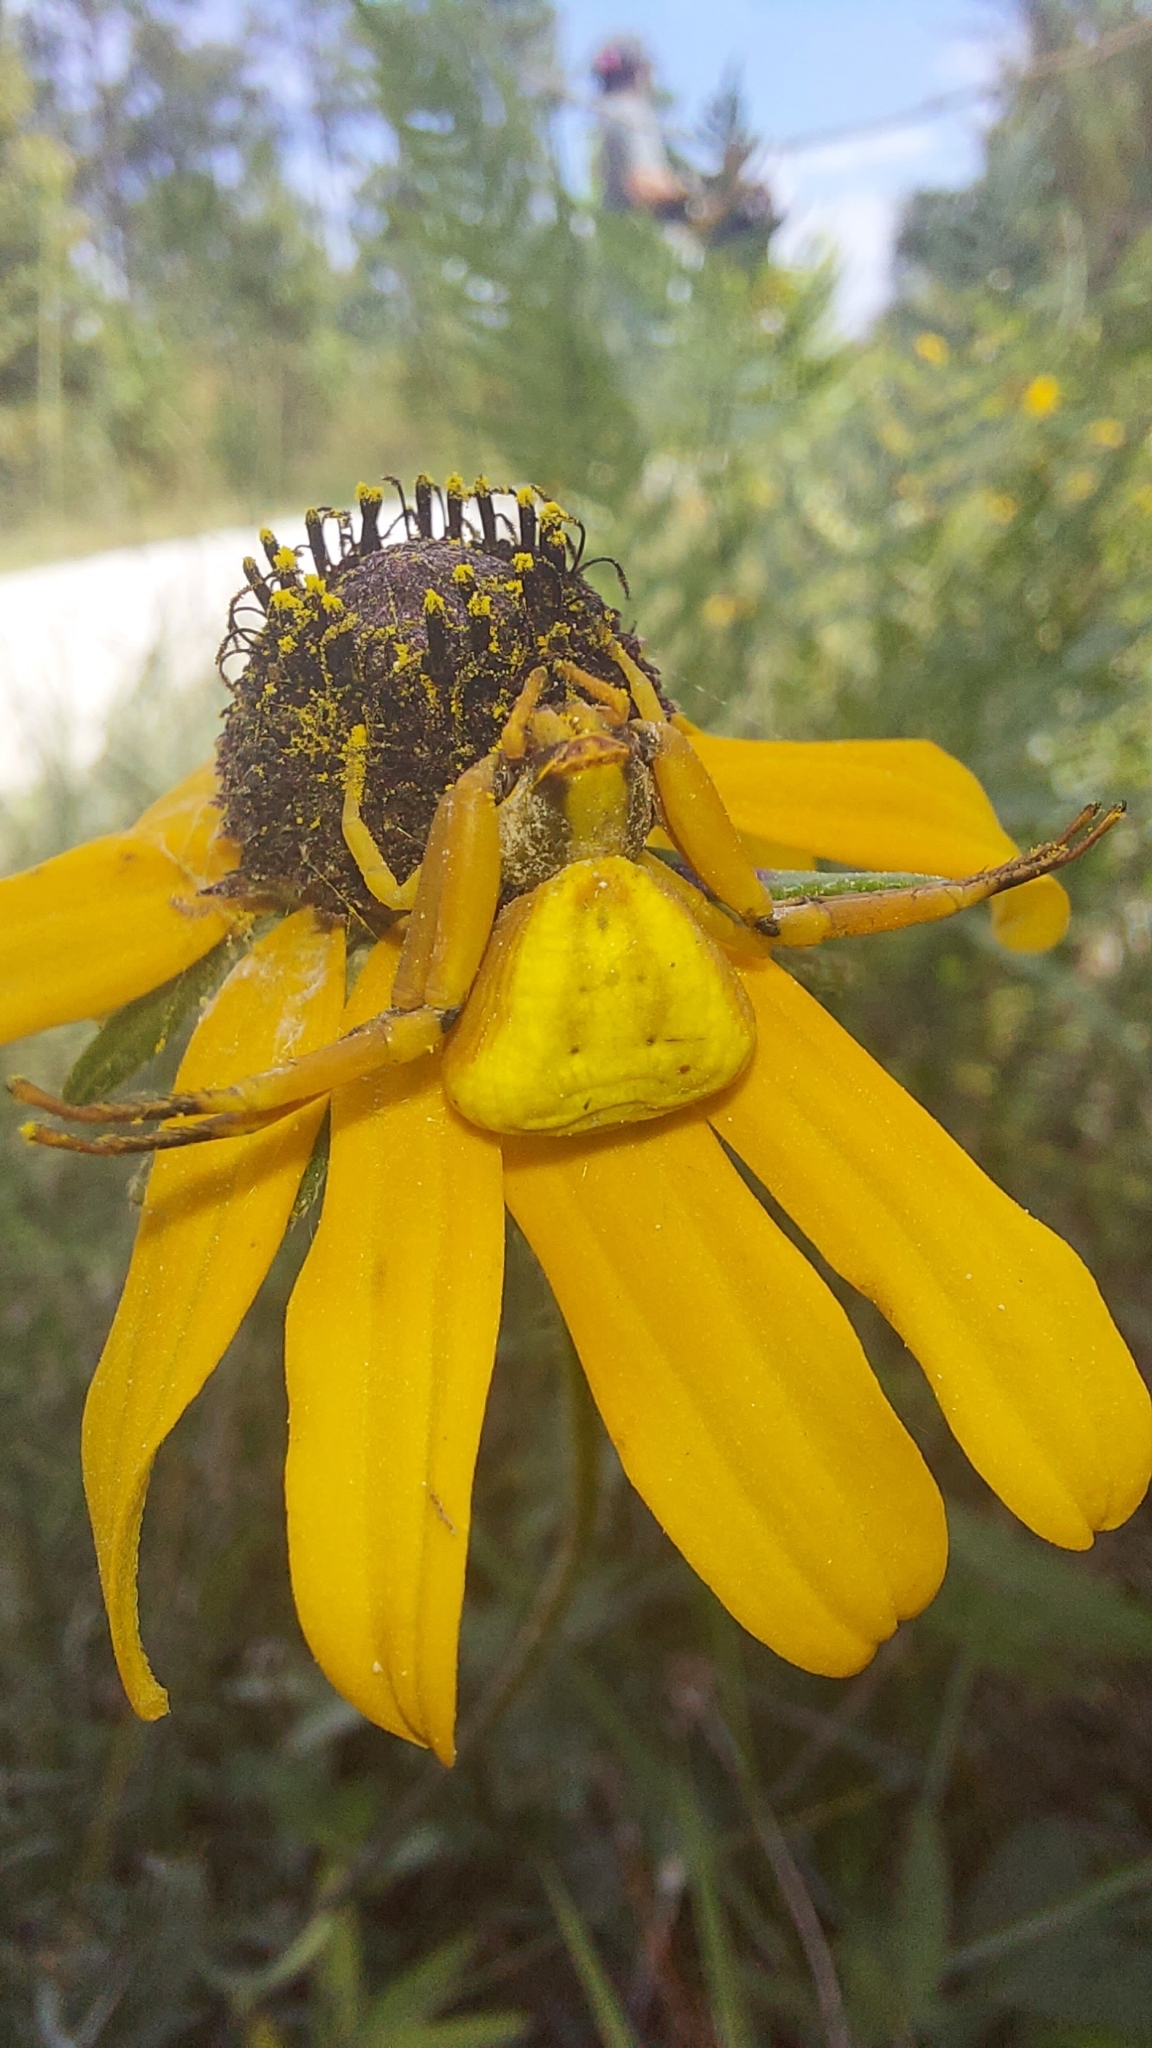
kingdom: Animalia
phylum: Arthropoda
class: Arachnida
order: Araneae
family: Thomisidae
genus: Misumenoides
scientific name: Misumenoides formosipes
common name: White-banded crab spider
